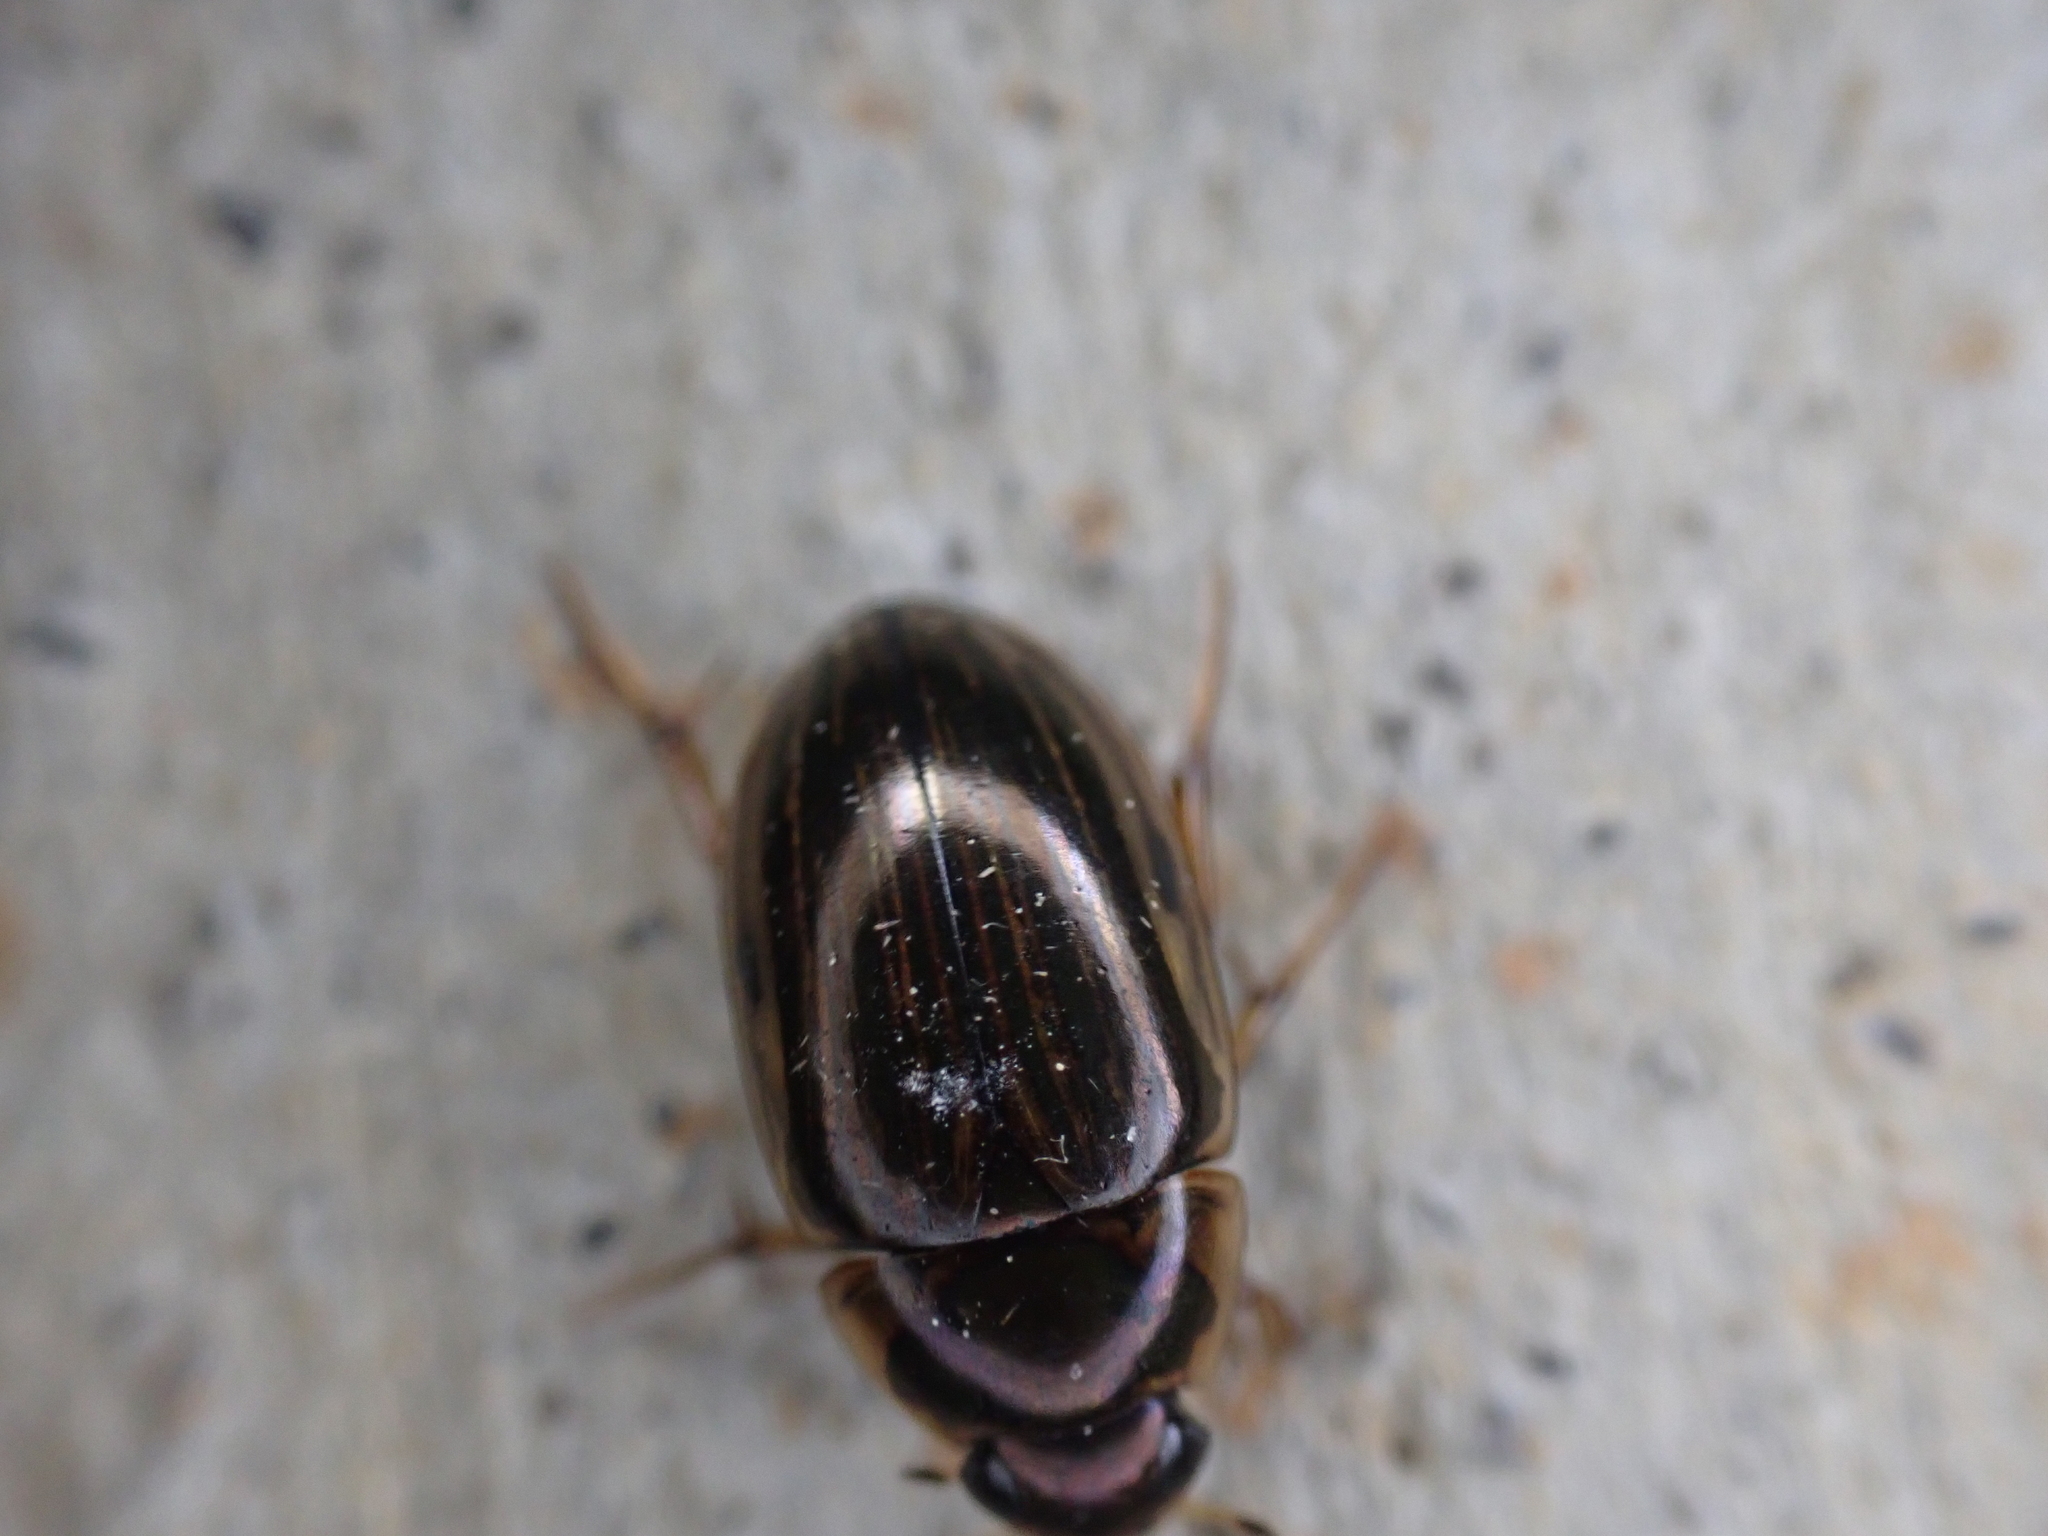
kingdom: Animalia
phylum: Arthropoda
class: Insecta
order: Coleoptera
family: Hydrophilidae
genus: Tropisternus
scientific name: Tropisternus collaris
